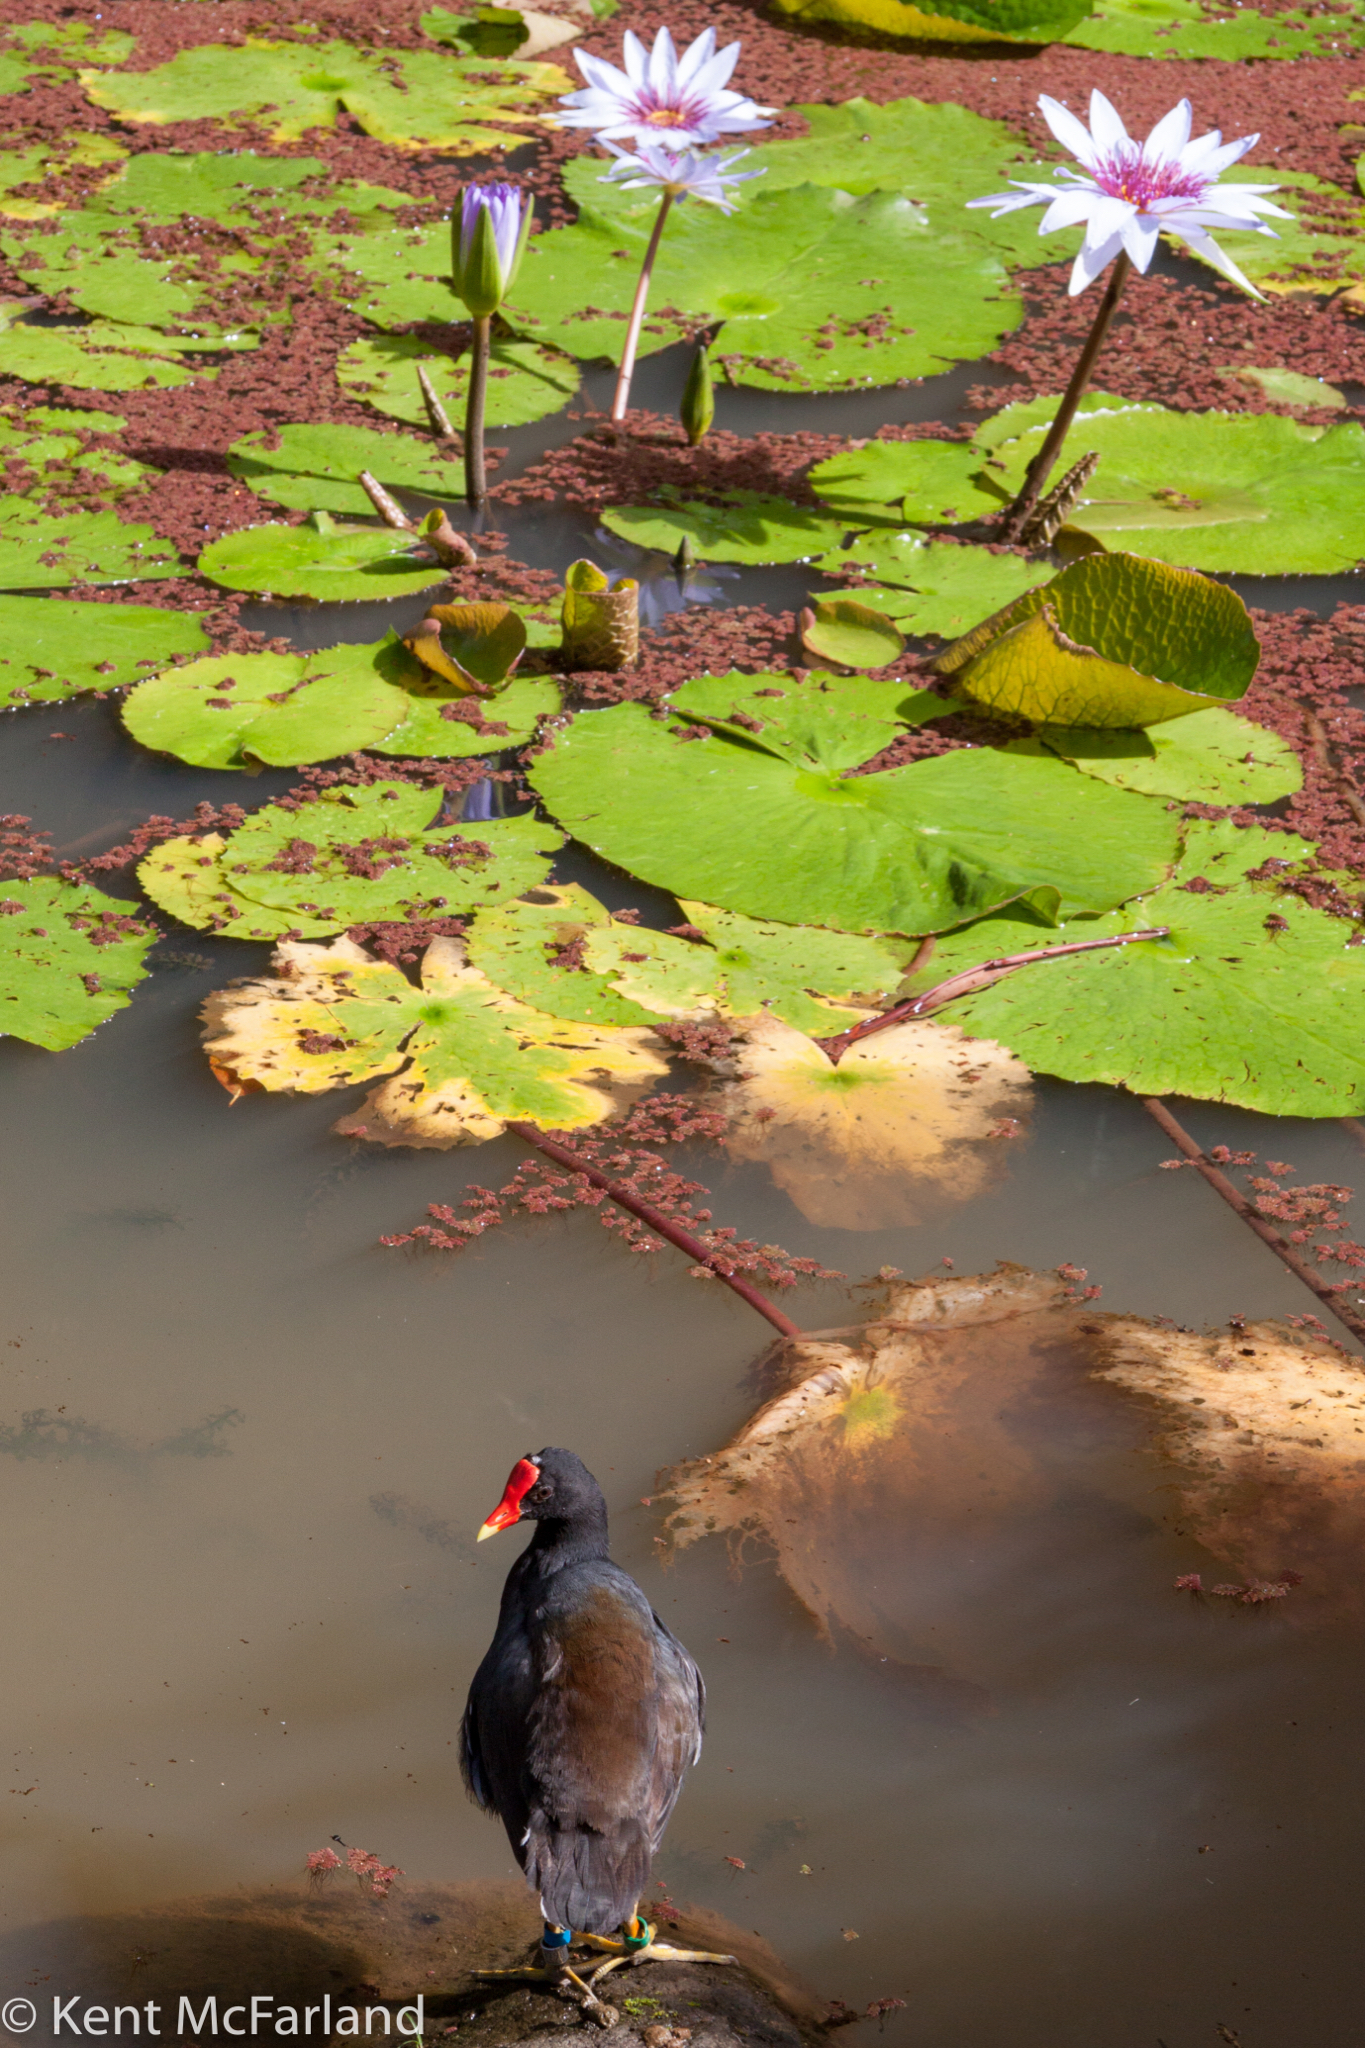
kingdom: Animalia
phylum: Chordata
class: Aves
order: Gruiformes
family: Rallidae
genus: Gallinula
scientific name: Gallinula chloropus
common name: Common moorhen
